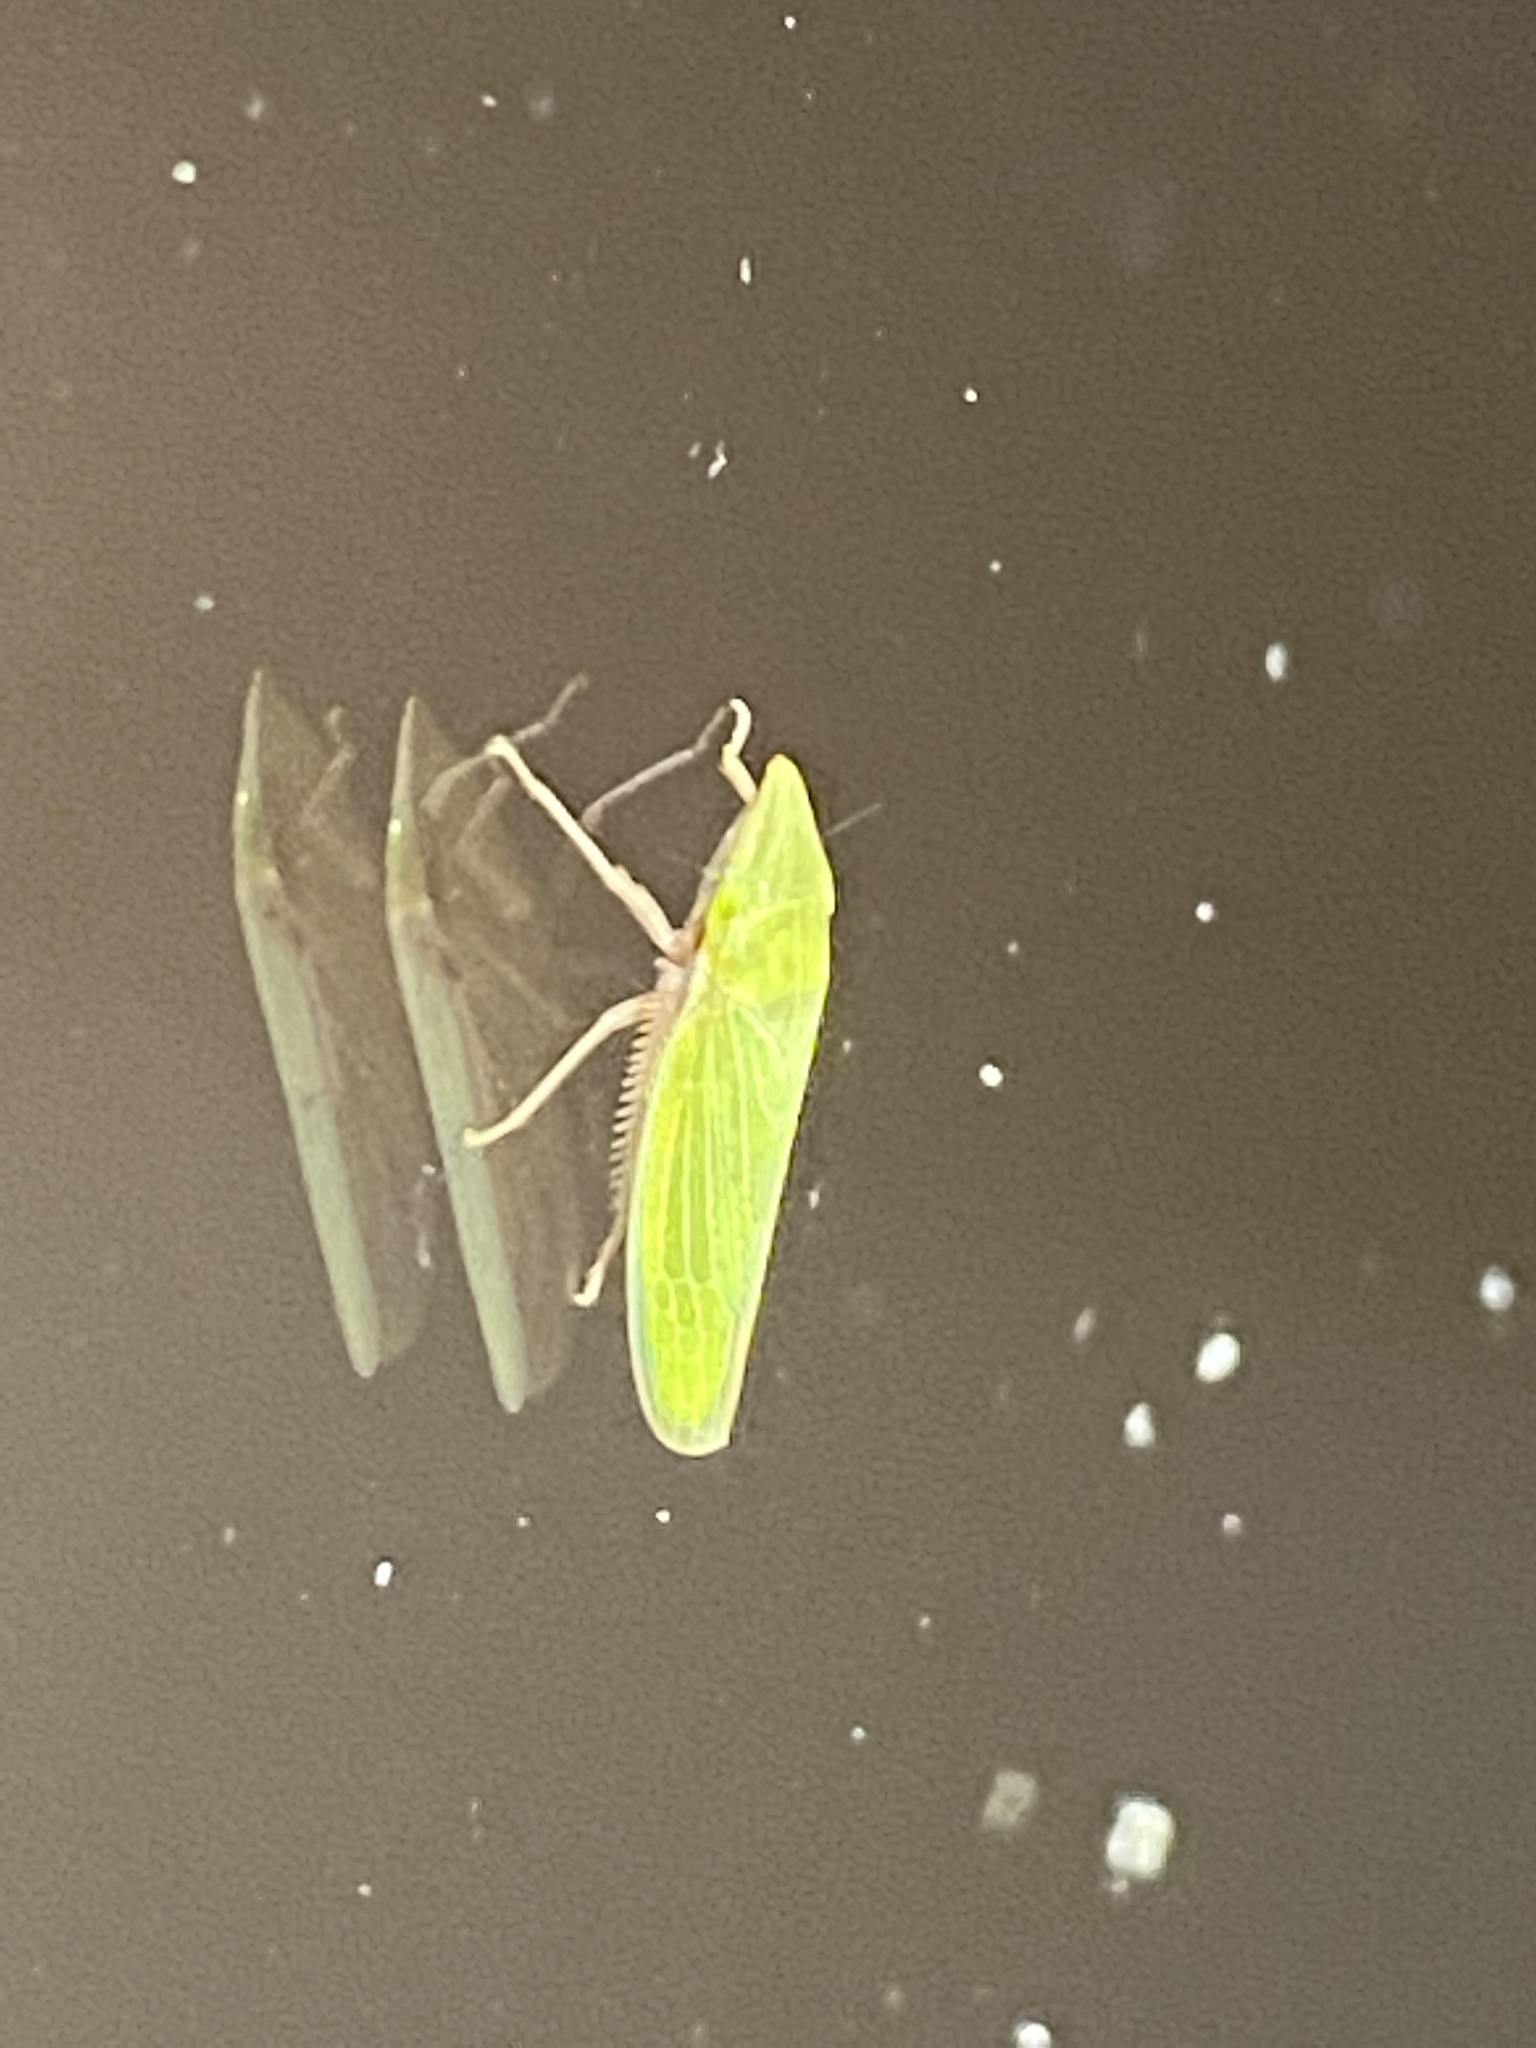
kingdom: Animalia
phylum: Arthropoda
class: Insecta
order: Hemiptera
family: Cicadellidae
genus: Draeculacephala
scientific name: Draeculacephala antica
